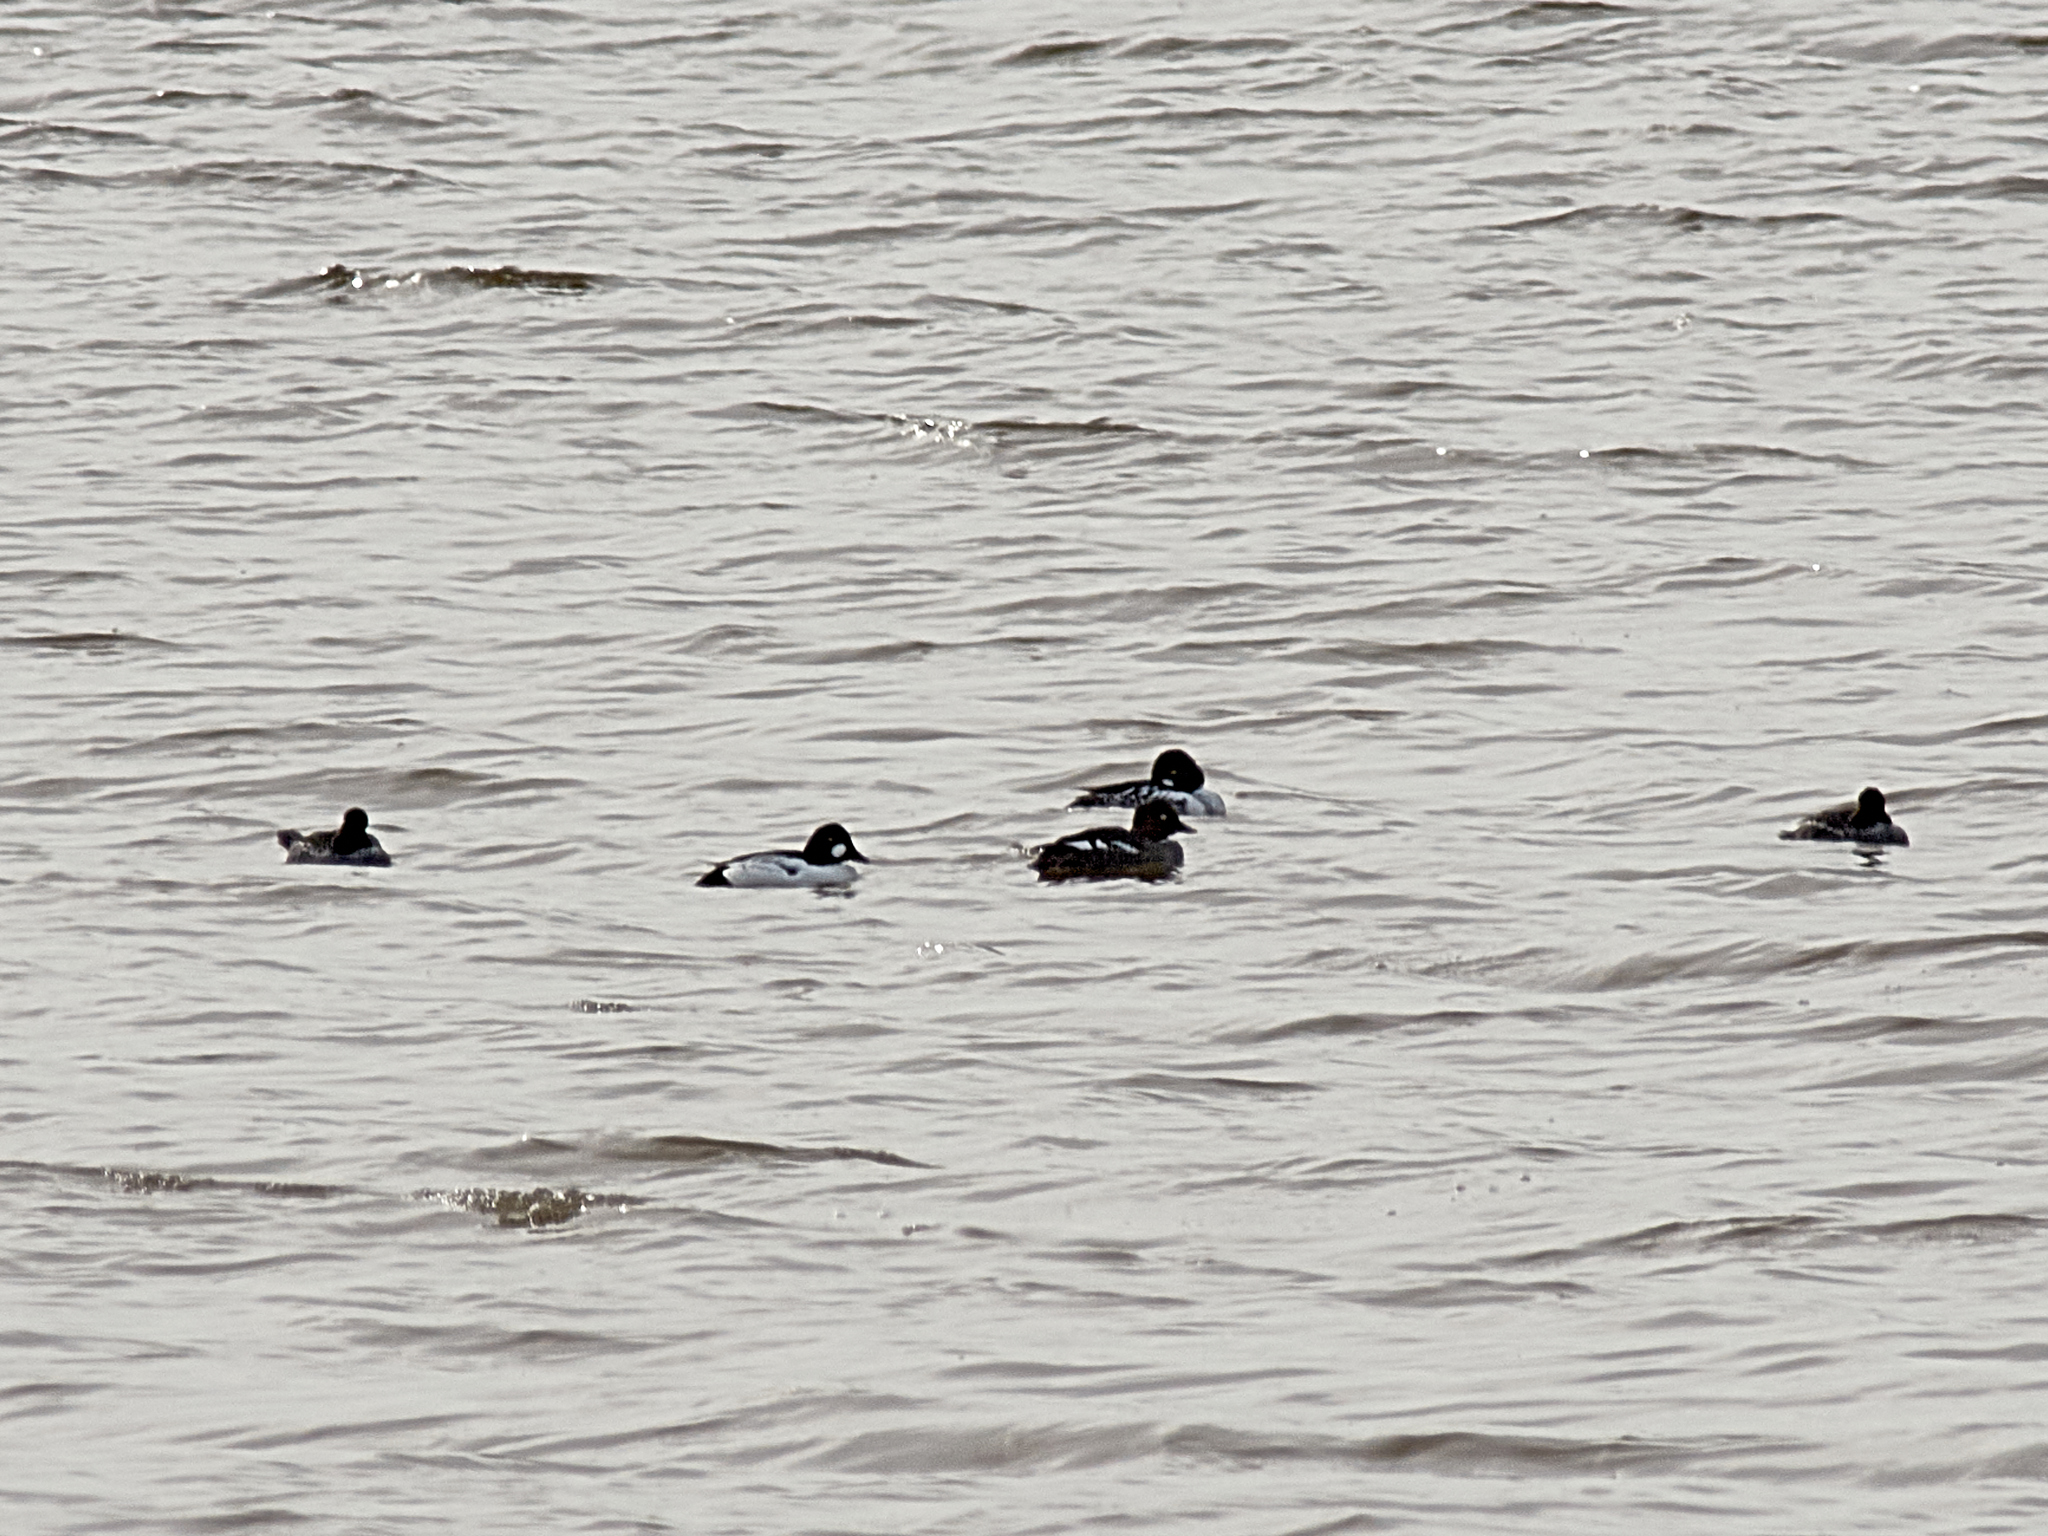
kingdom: Animalia
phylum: Chordata
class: Aves
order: Anseriformes
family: Anatidae
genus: Bucephala
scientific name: Bucephala clangula
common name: Common goldeneye
